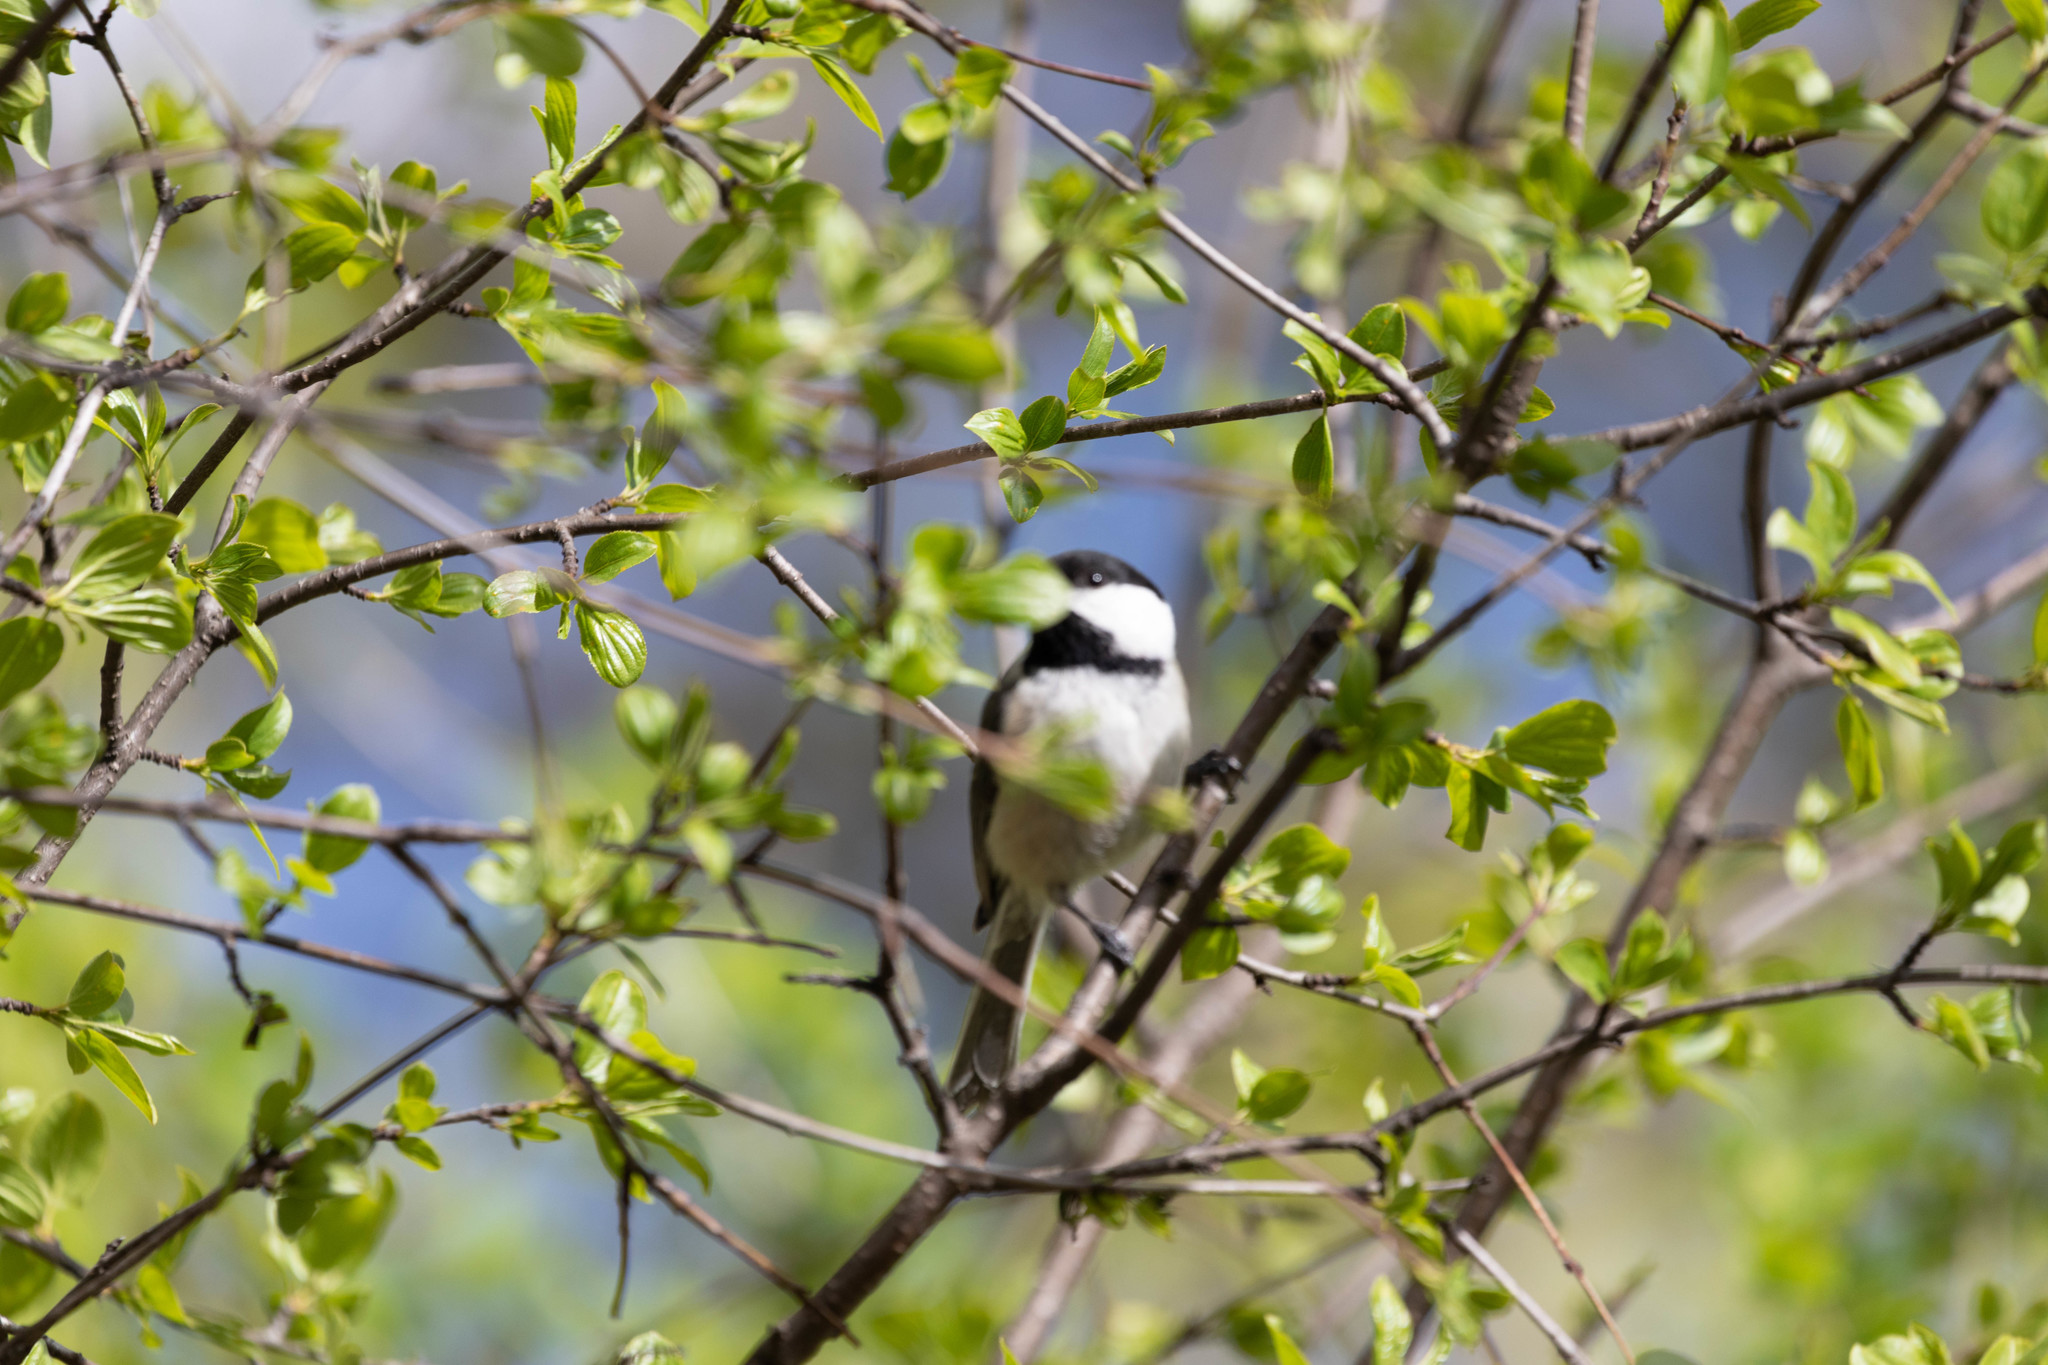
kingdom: Animalia
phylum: Chordata
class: Aves
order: Passeriformes
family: Paridae
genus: Poecile
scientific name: Poecile atricapillus
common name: Black-capped chickadee
